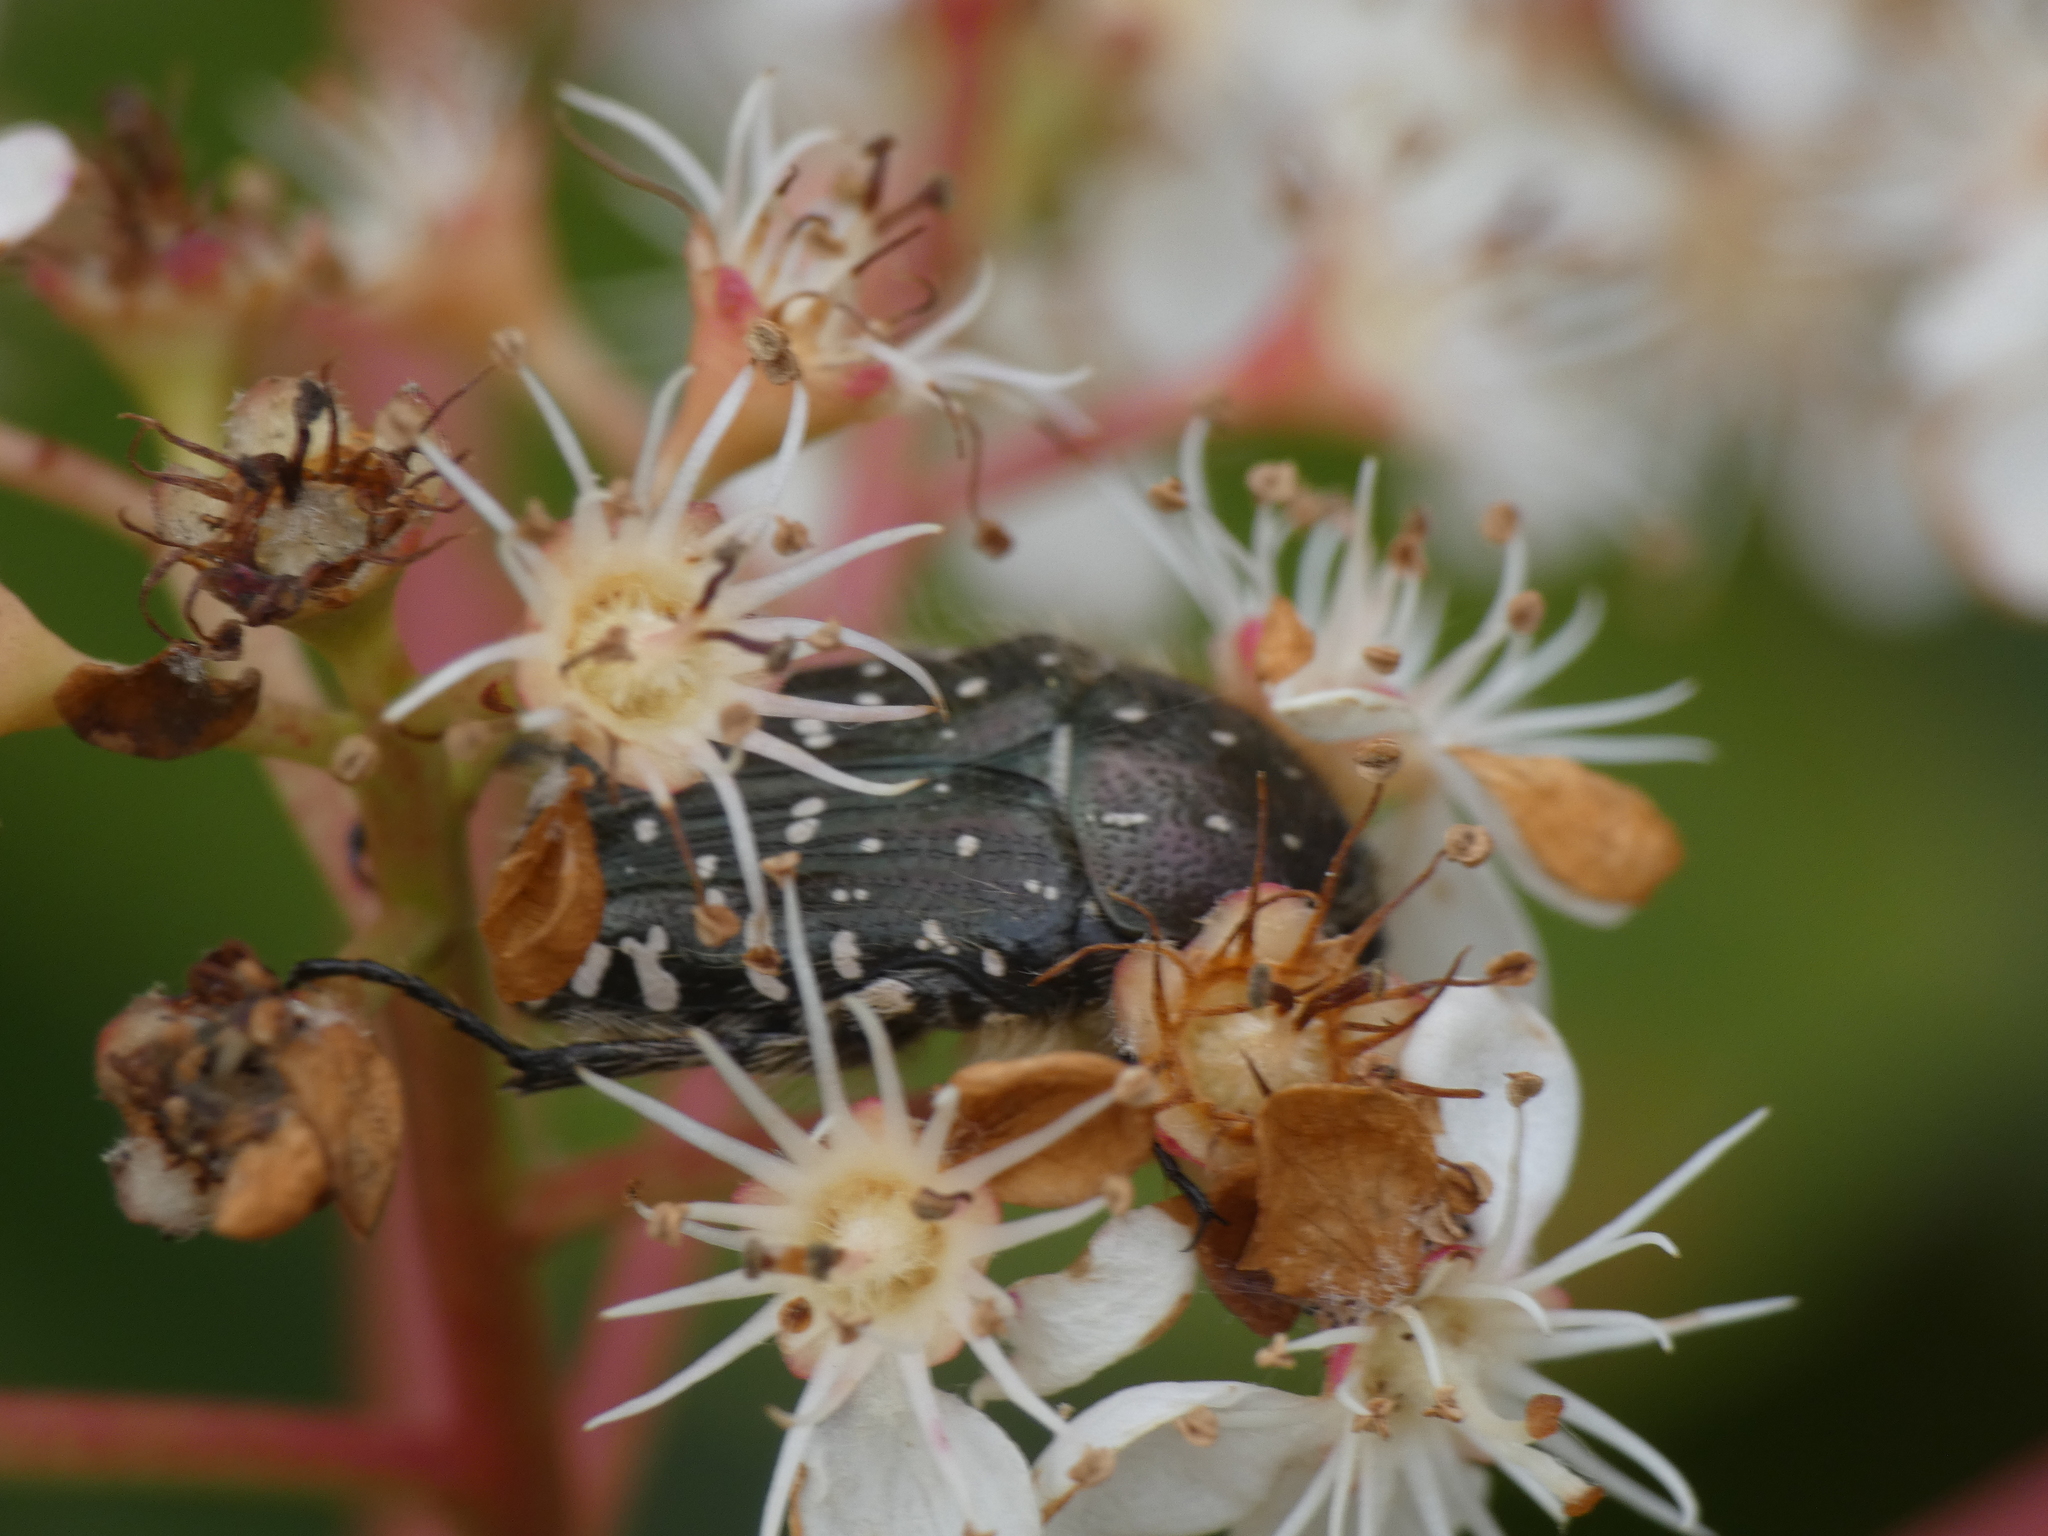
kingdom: Animalia
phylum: Arthropoda
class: Insecta
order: Coleoptera
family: Scarabaeidae
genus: Oxythyrea
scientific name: Oxythyrea funesta
